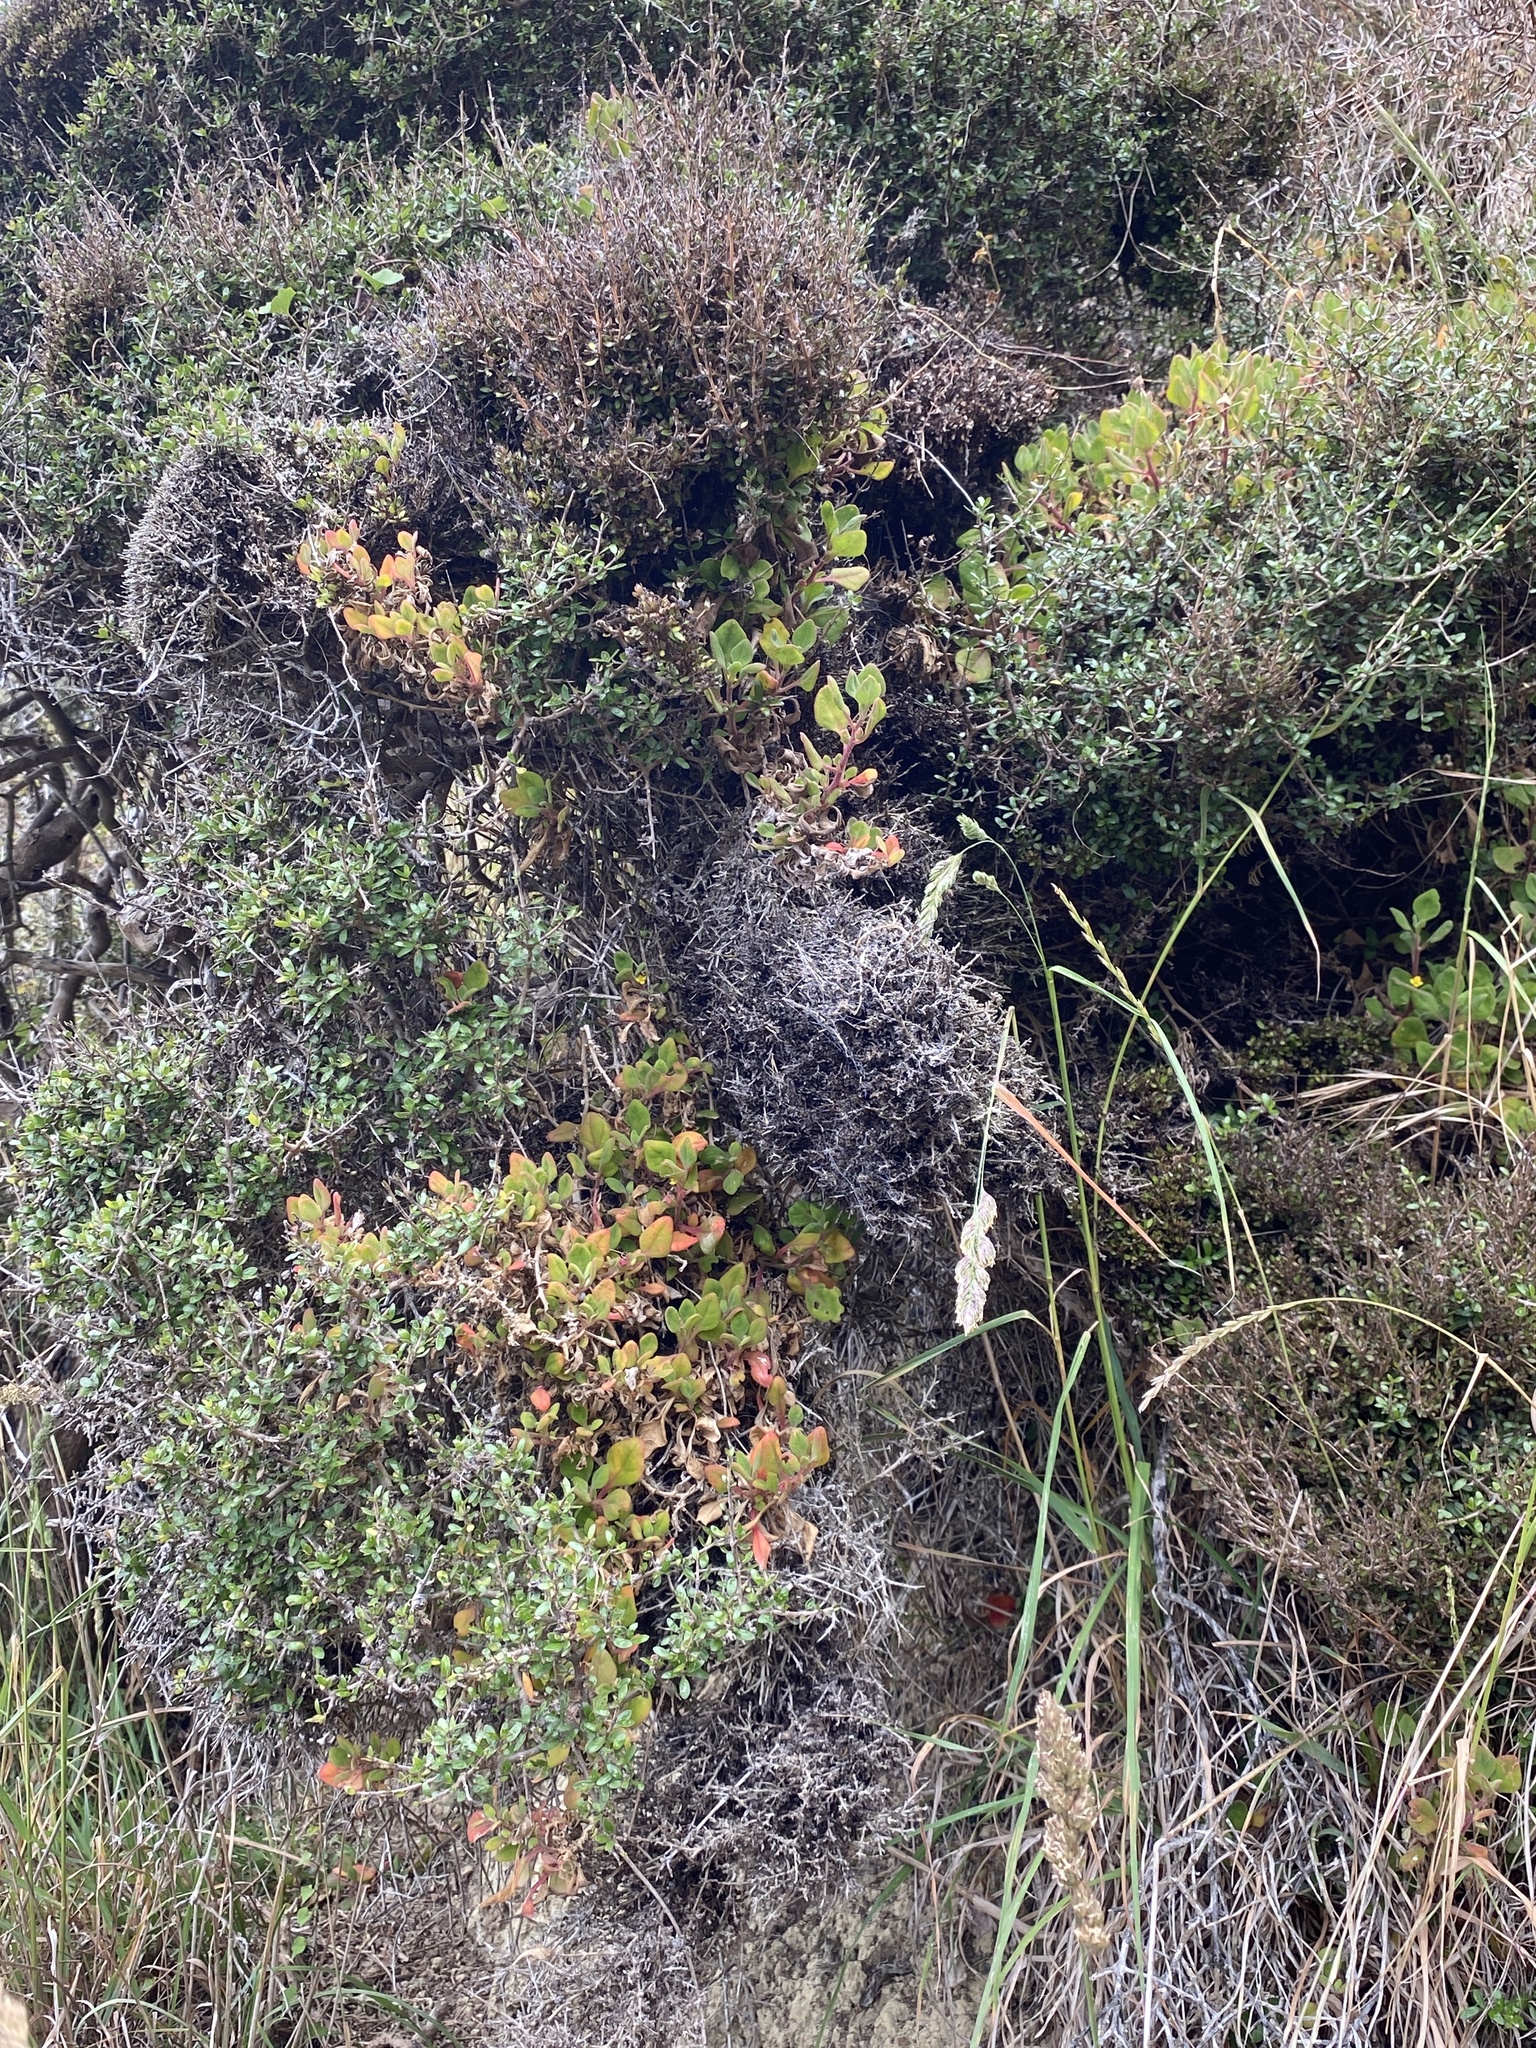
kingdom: Plantae
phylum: Tracheophyta
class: Magnoliopsida
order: Caryophyllales
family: Aizoaceae
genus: Tetragonia
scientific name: Tetragonia implexicoma
